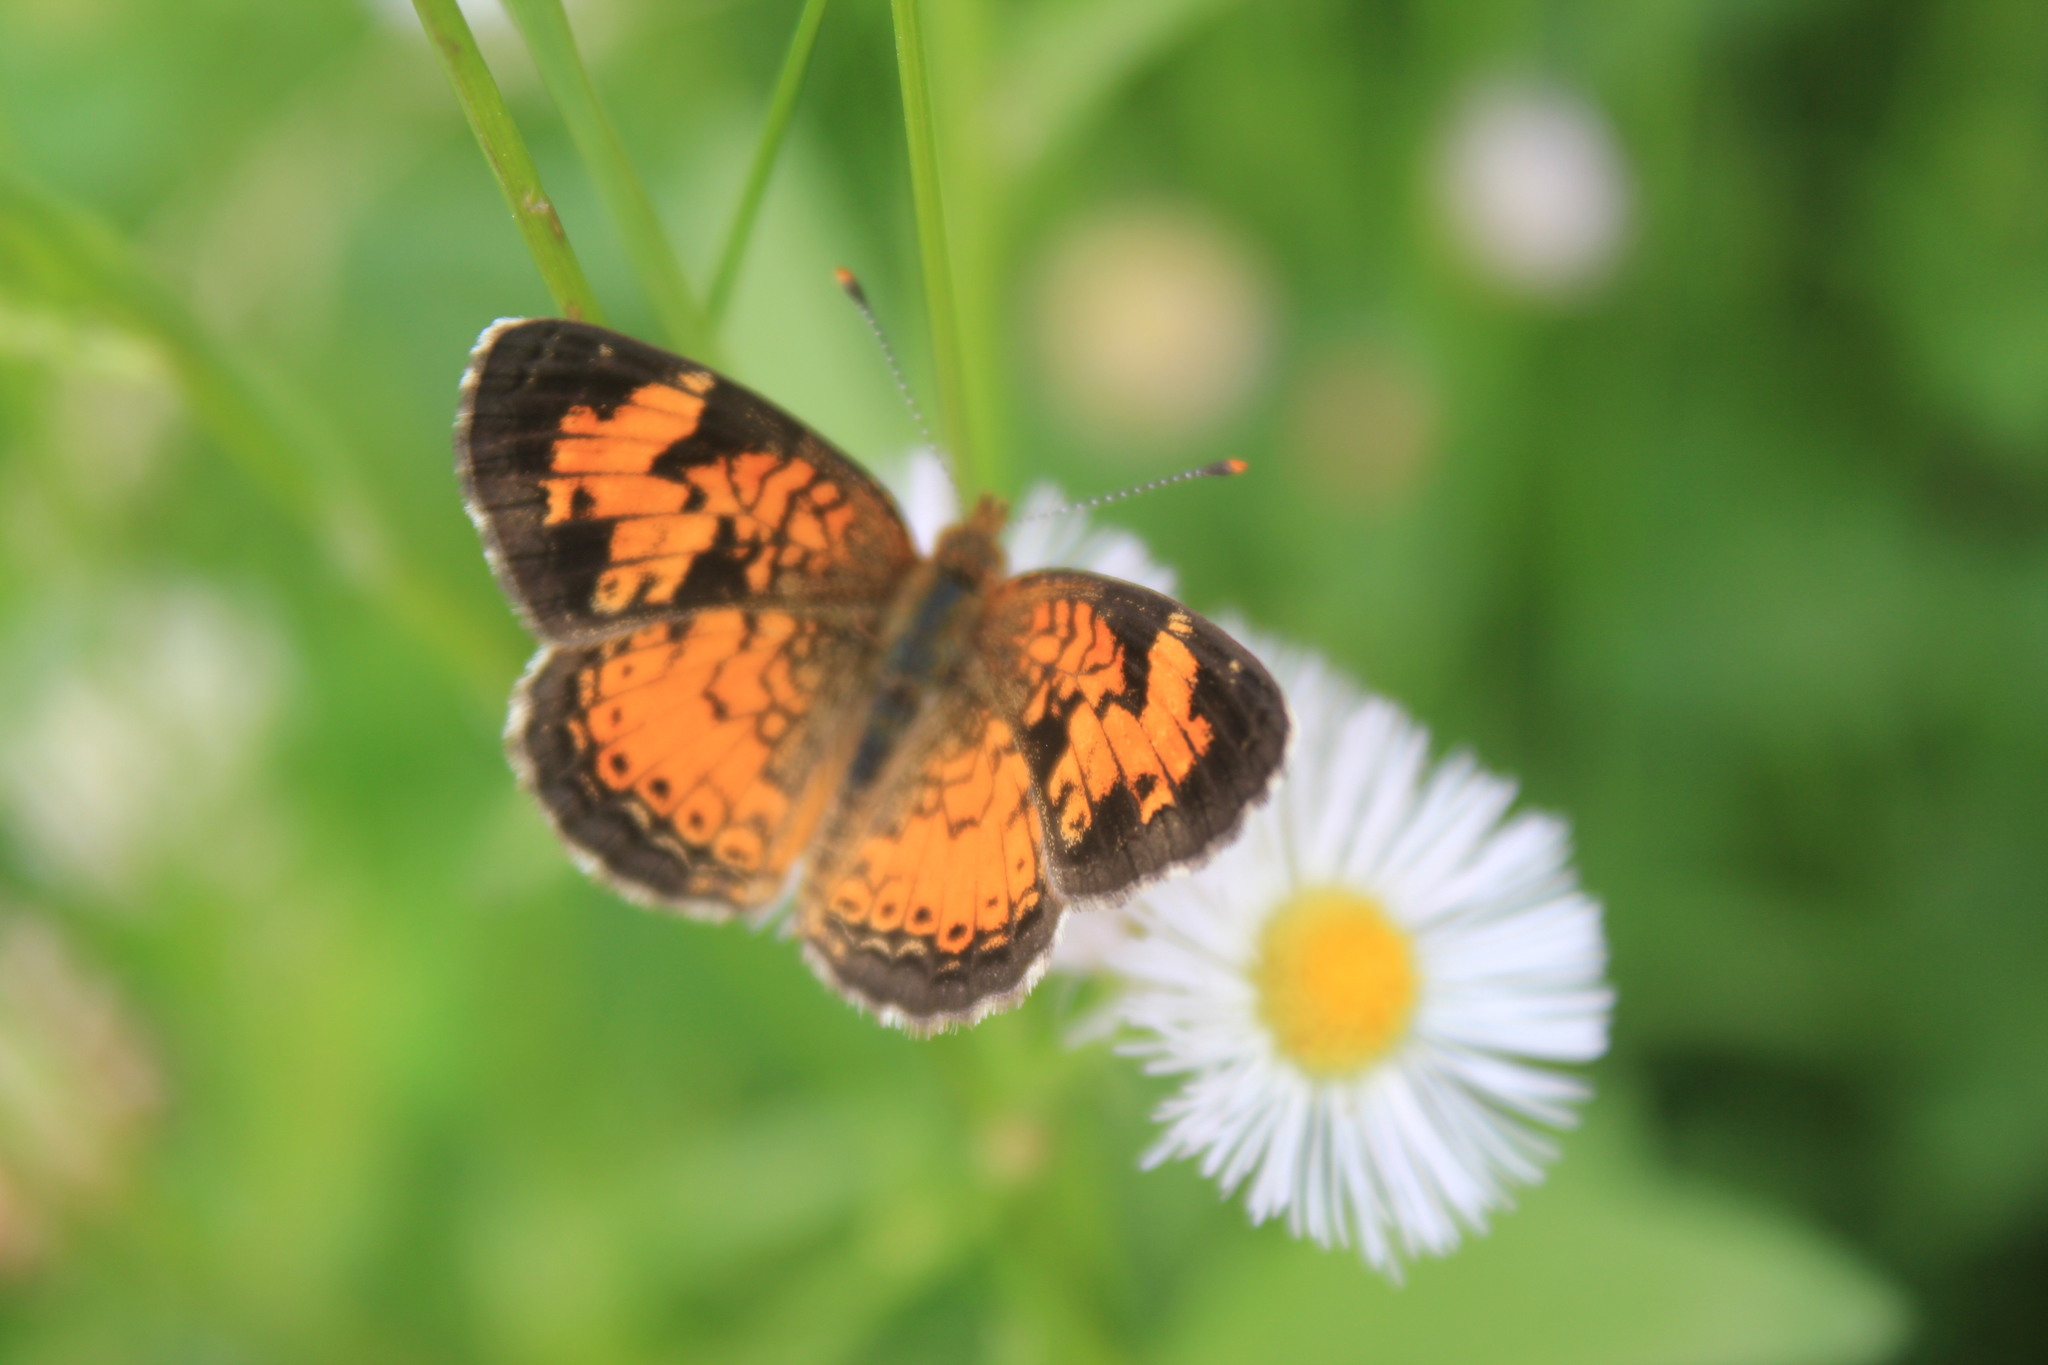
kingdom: Animalia
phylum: Arthropoda
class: Insecta
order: Lepidoptera
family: Nymphalidae
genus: Phyciodes
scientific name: Phyciodes tharos
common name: Pearl crescent
